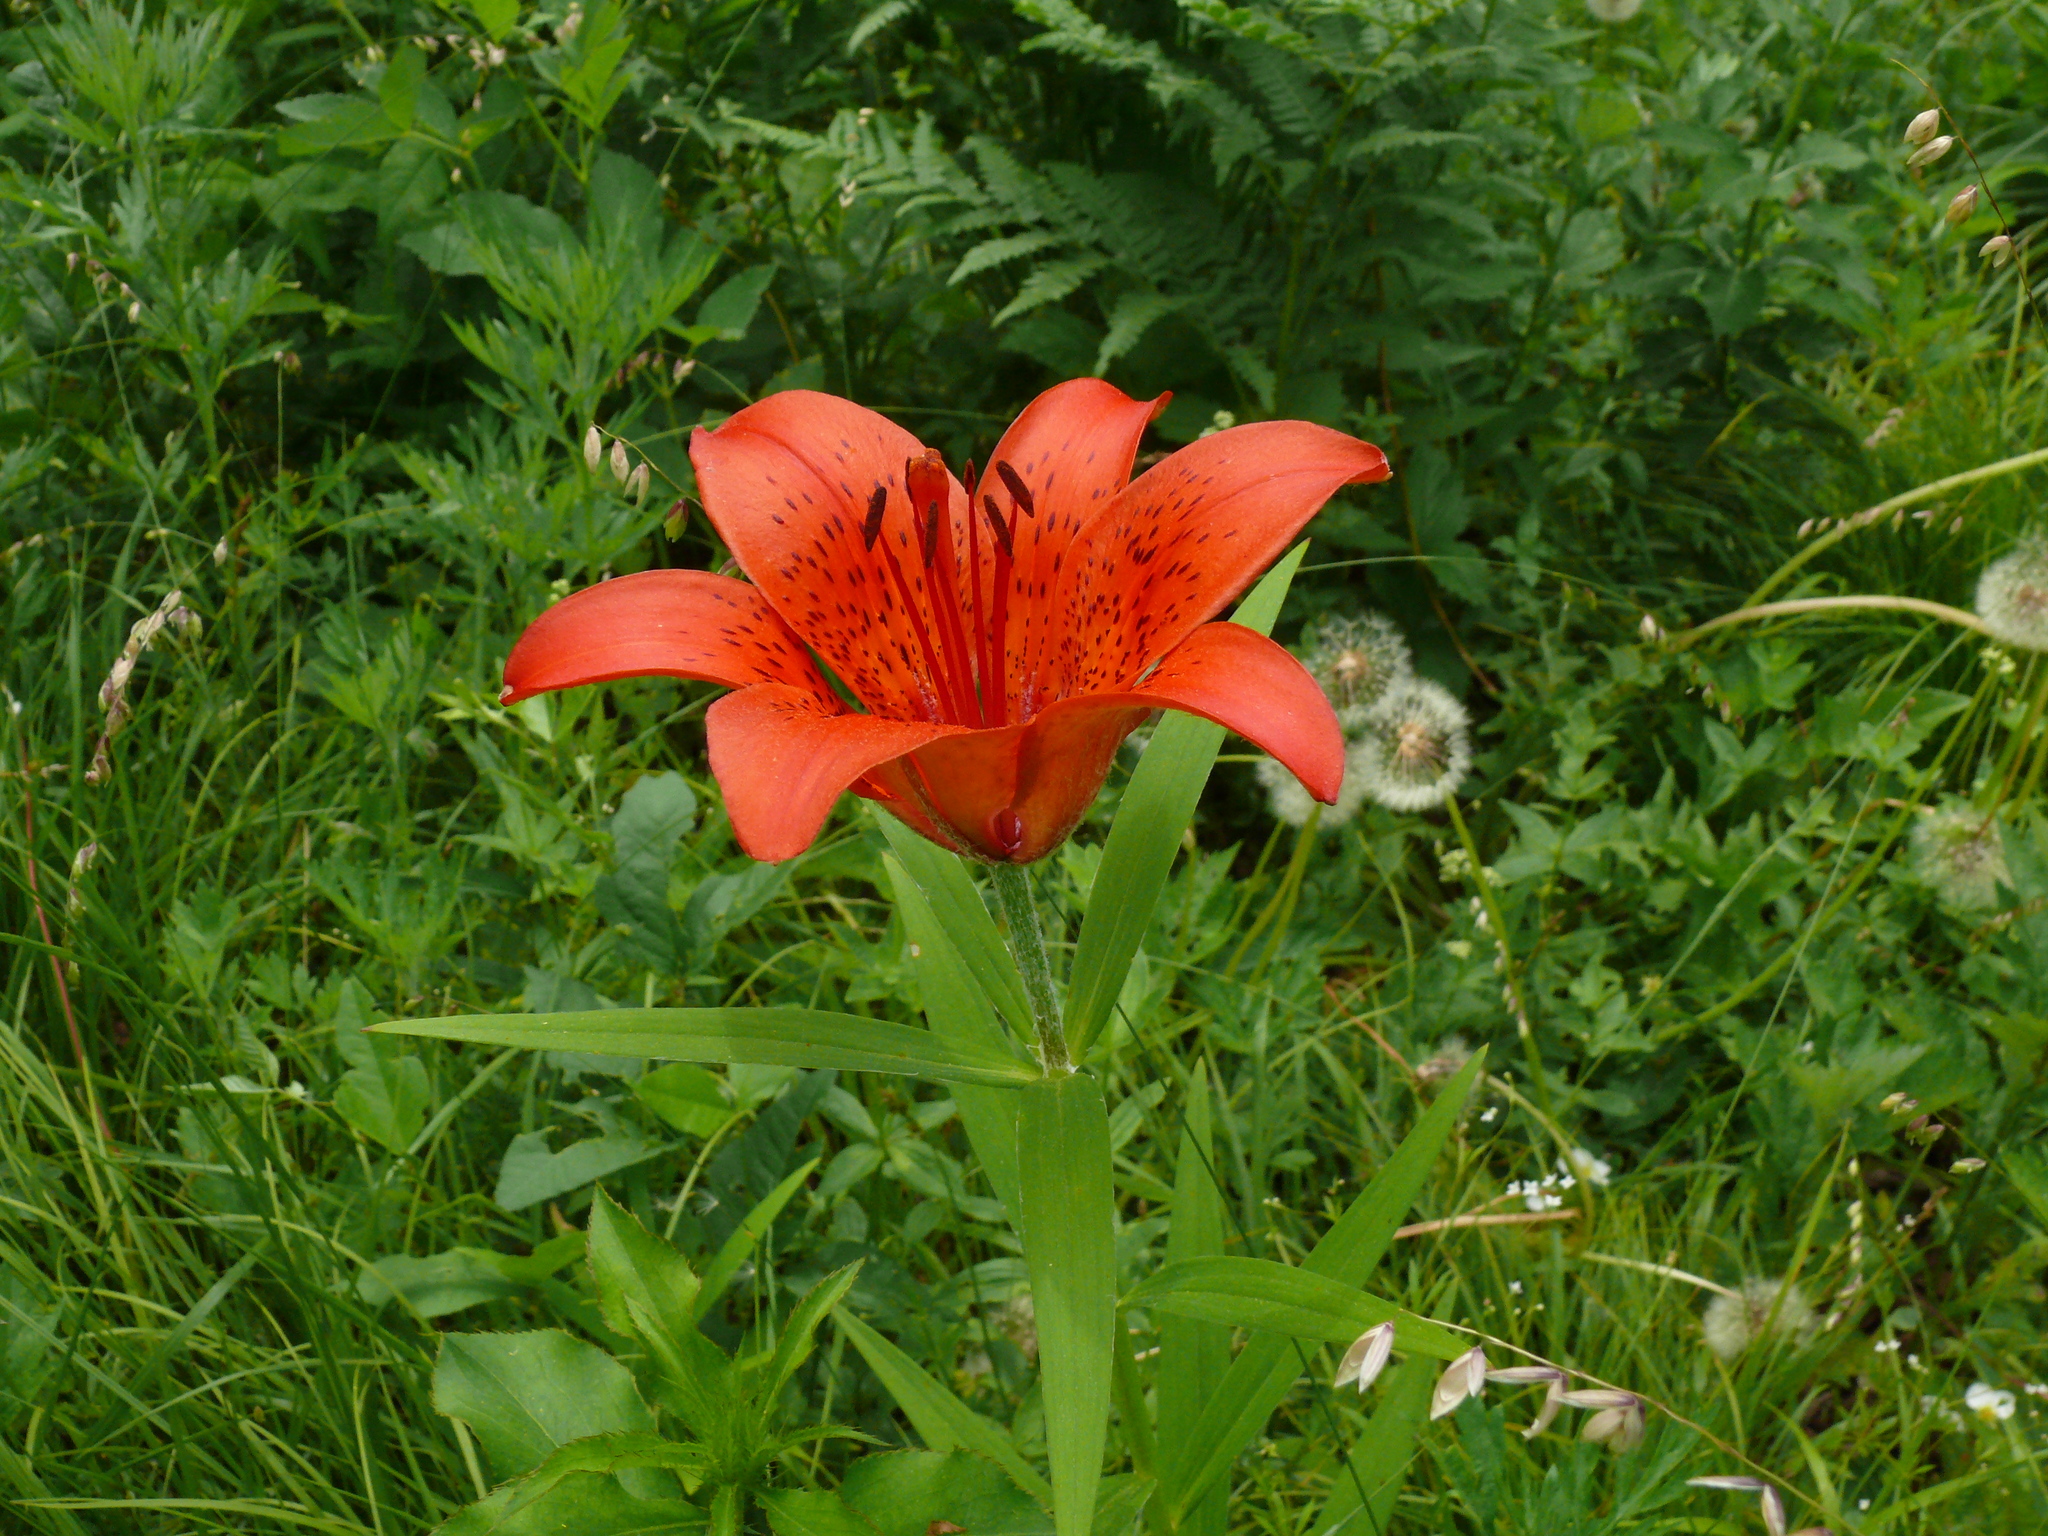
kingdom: Plantae
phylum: Tracheophyta
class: Liliopsida
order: Liliales
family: Liliaceae
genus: Lilium
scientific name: Lilium pensylvanicum
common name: Candlestick lily
